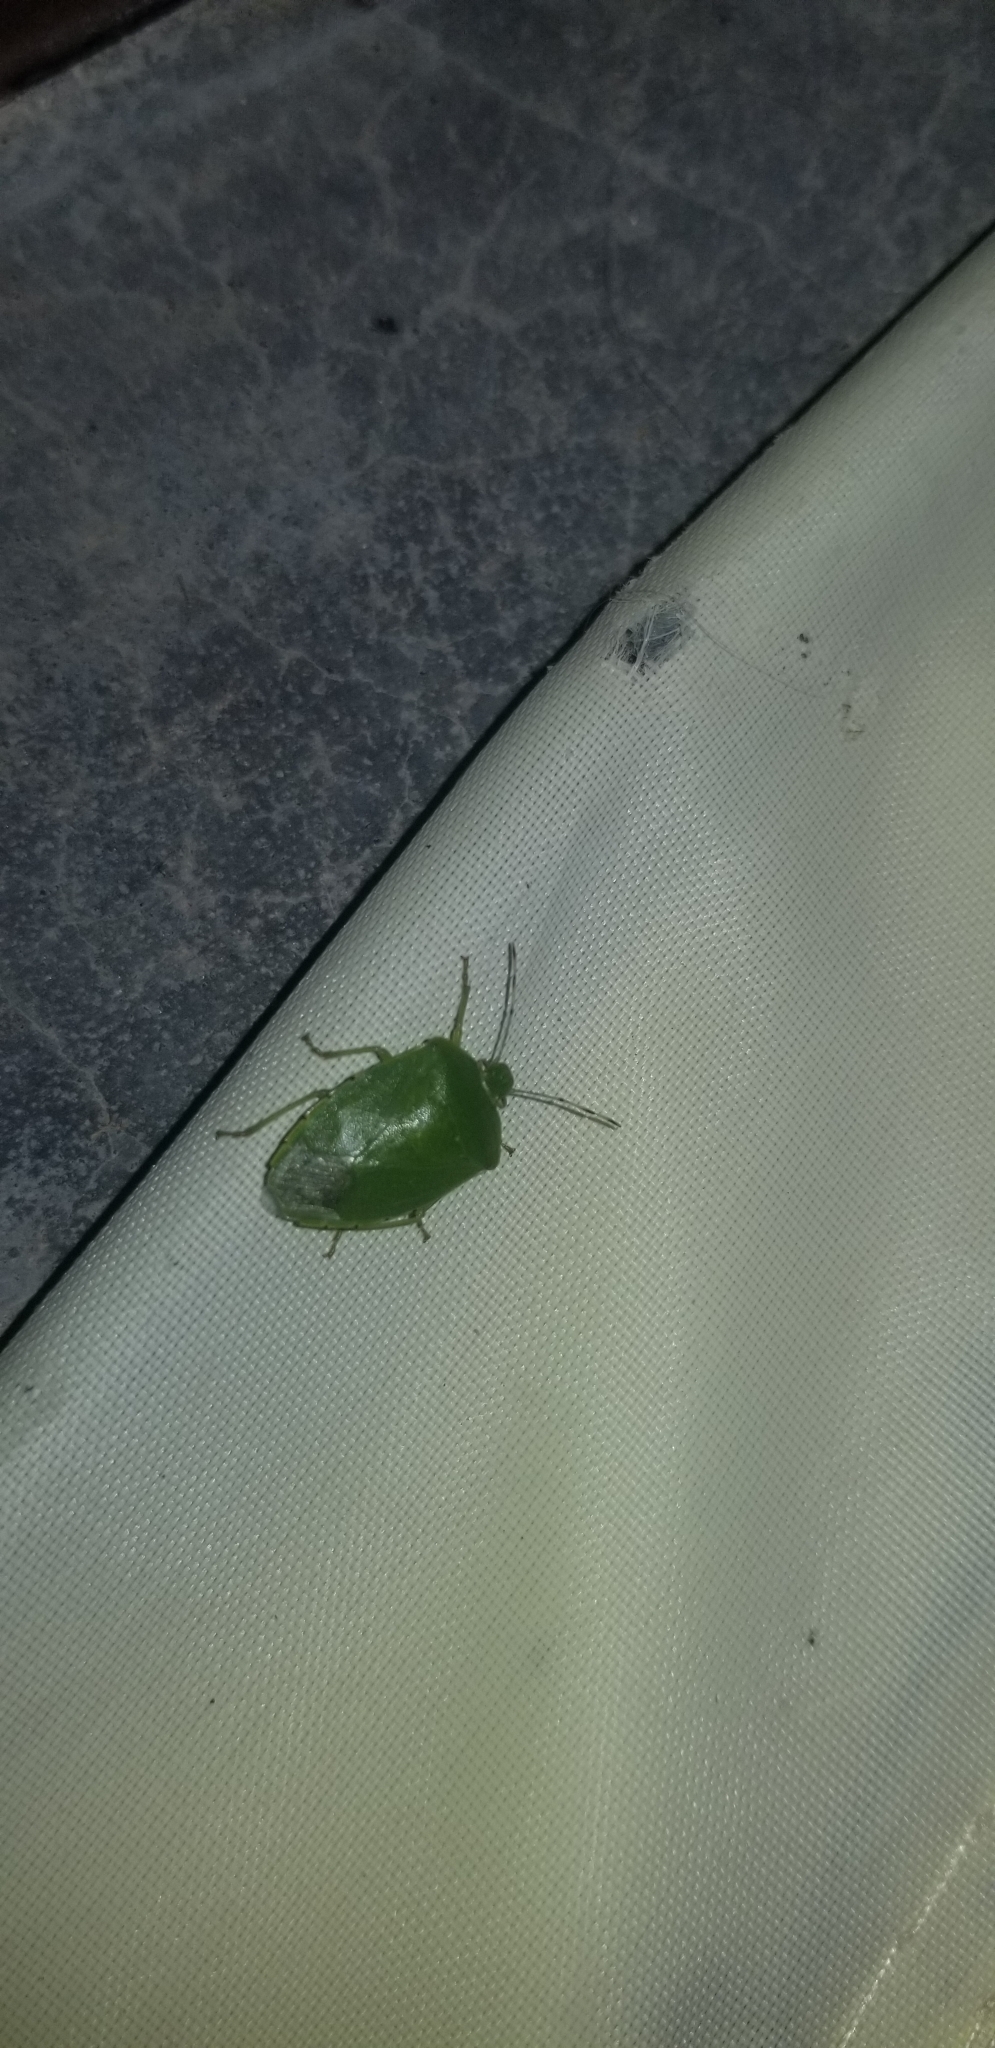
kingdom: Animalia
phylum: Arthropoda
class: Insecta
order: Hemiptera
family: Pentatomidae
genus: Chinavia
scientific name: Chinavia hilaris
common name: Green stink bug
